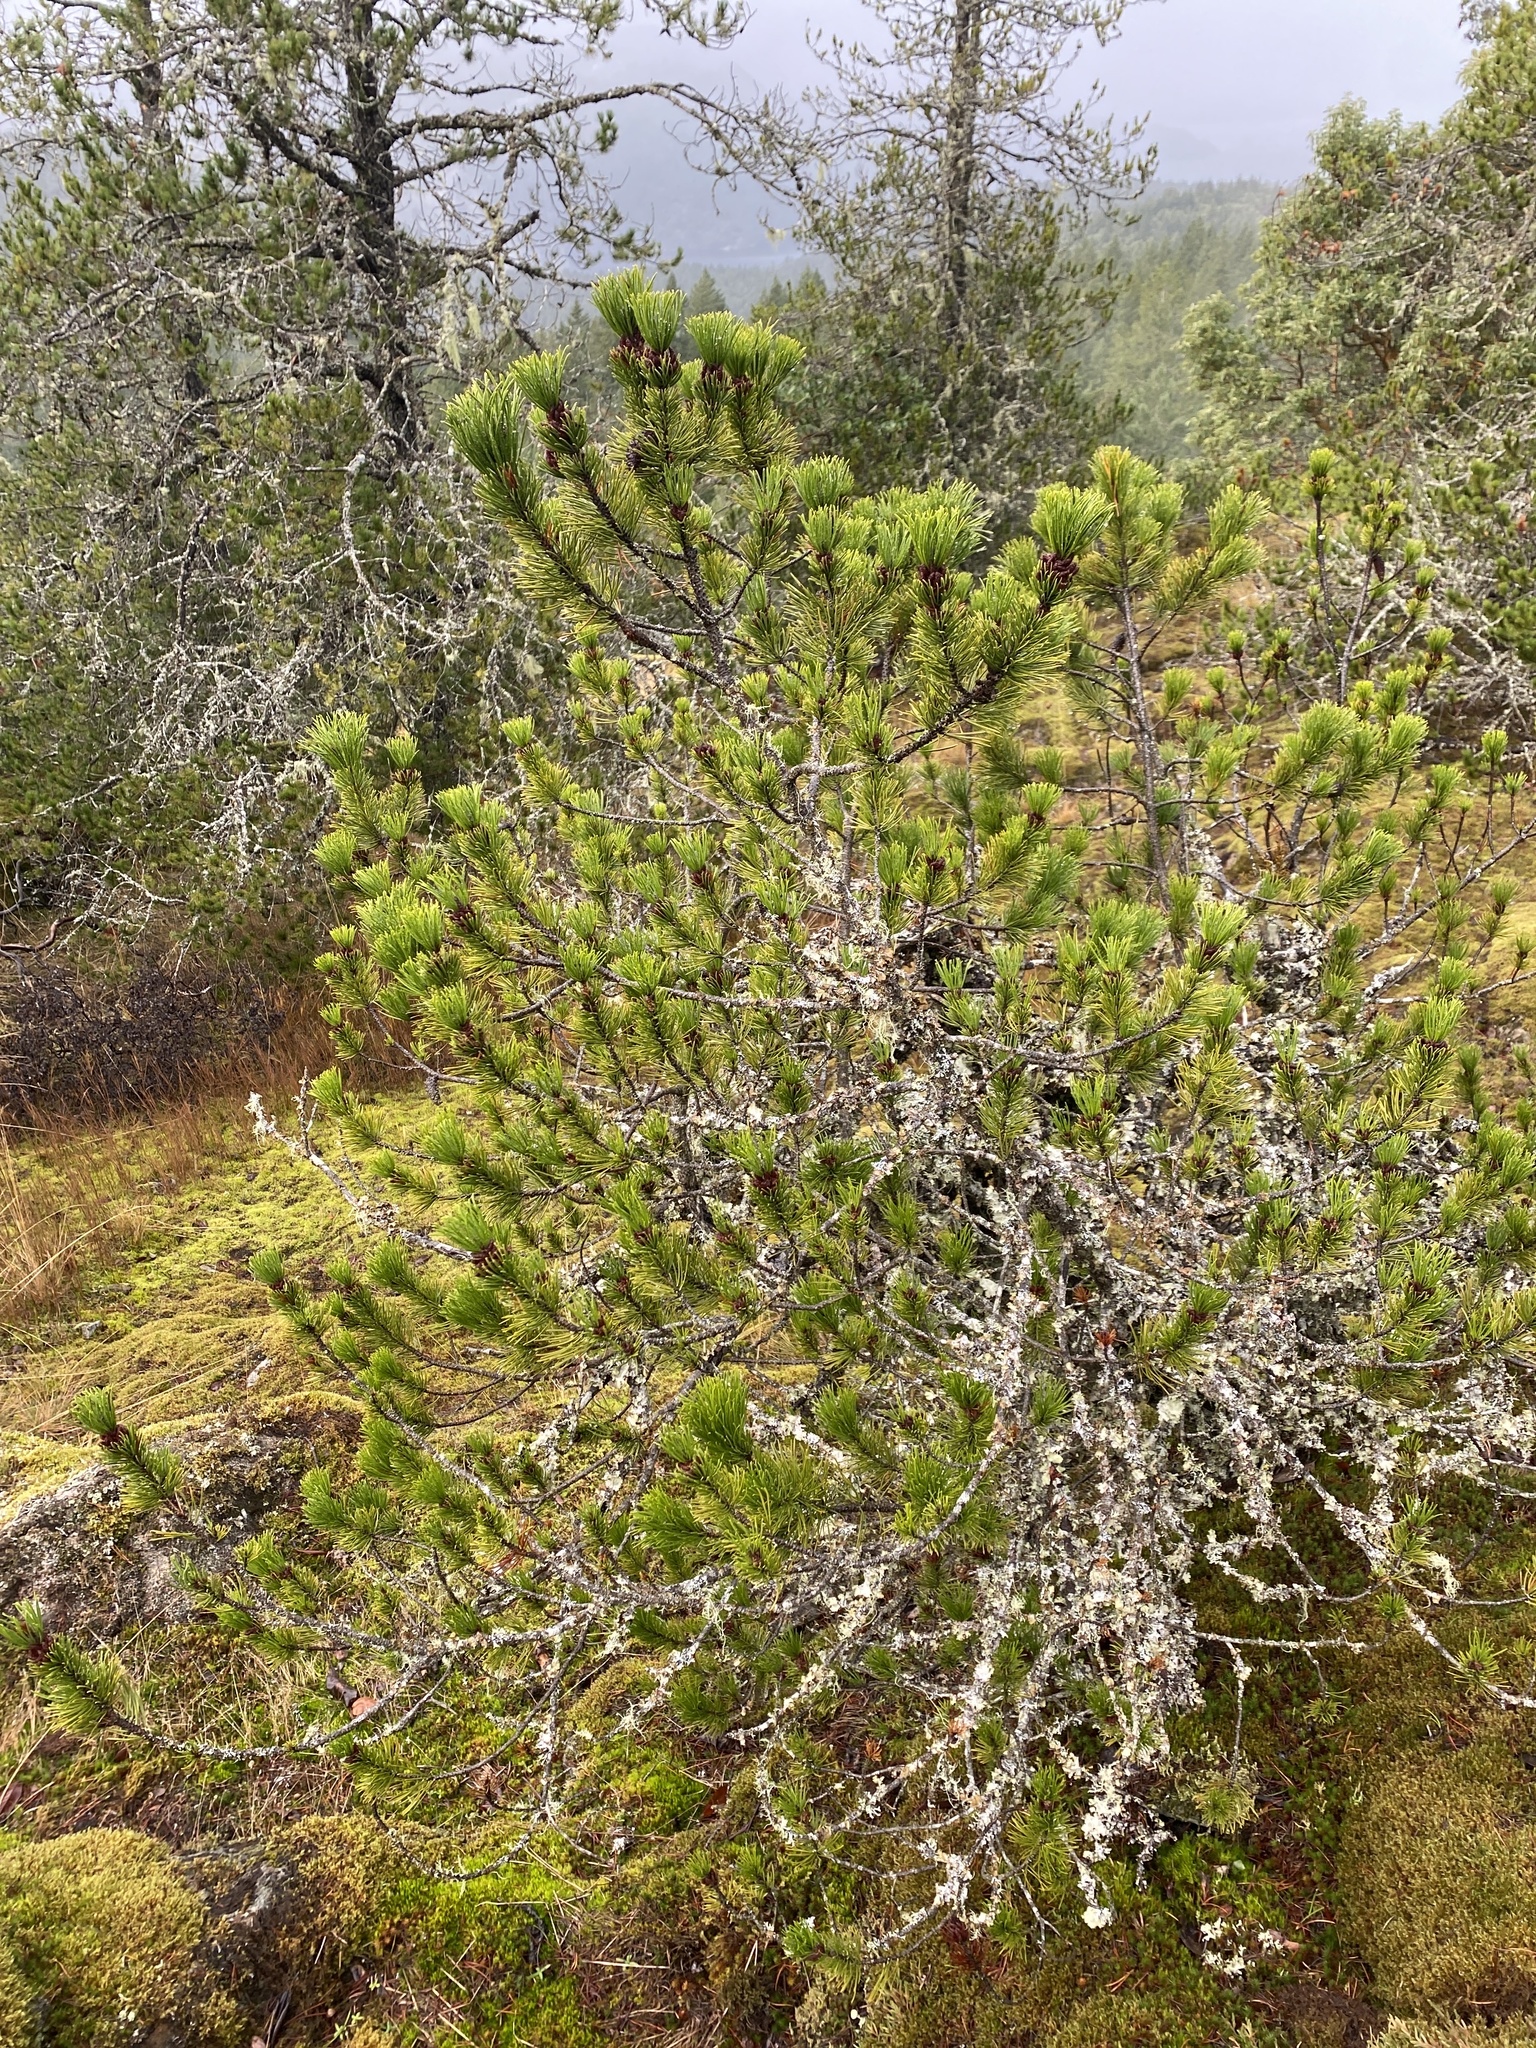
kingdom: Plantae
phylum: Tracheophyta
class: Pinopsida
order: Pinales
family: Pinaceae
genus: Pinus
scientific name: Pinus contorta
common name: Lodgepole pine
